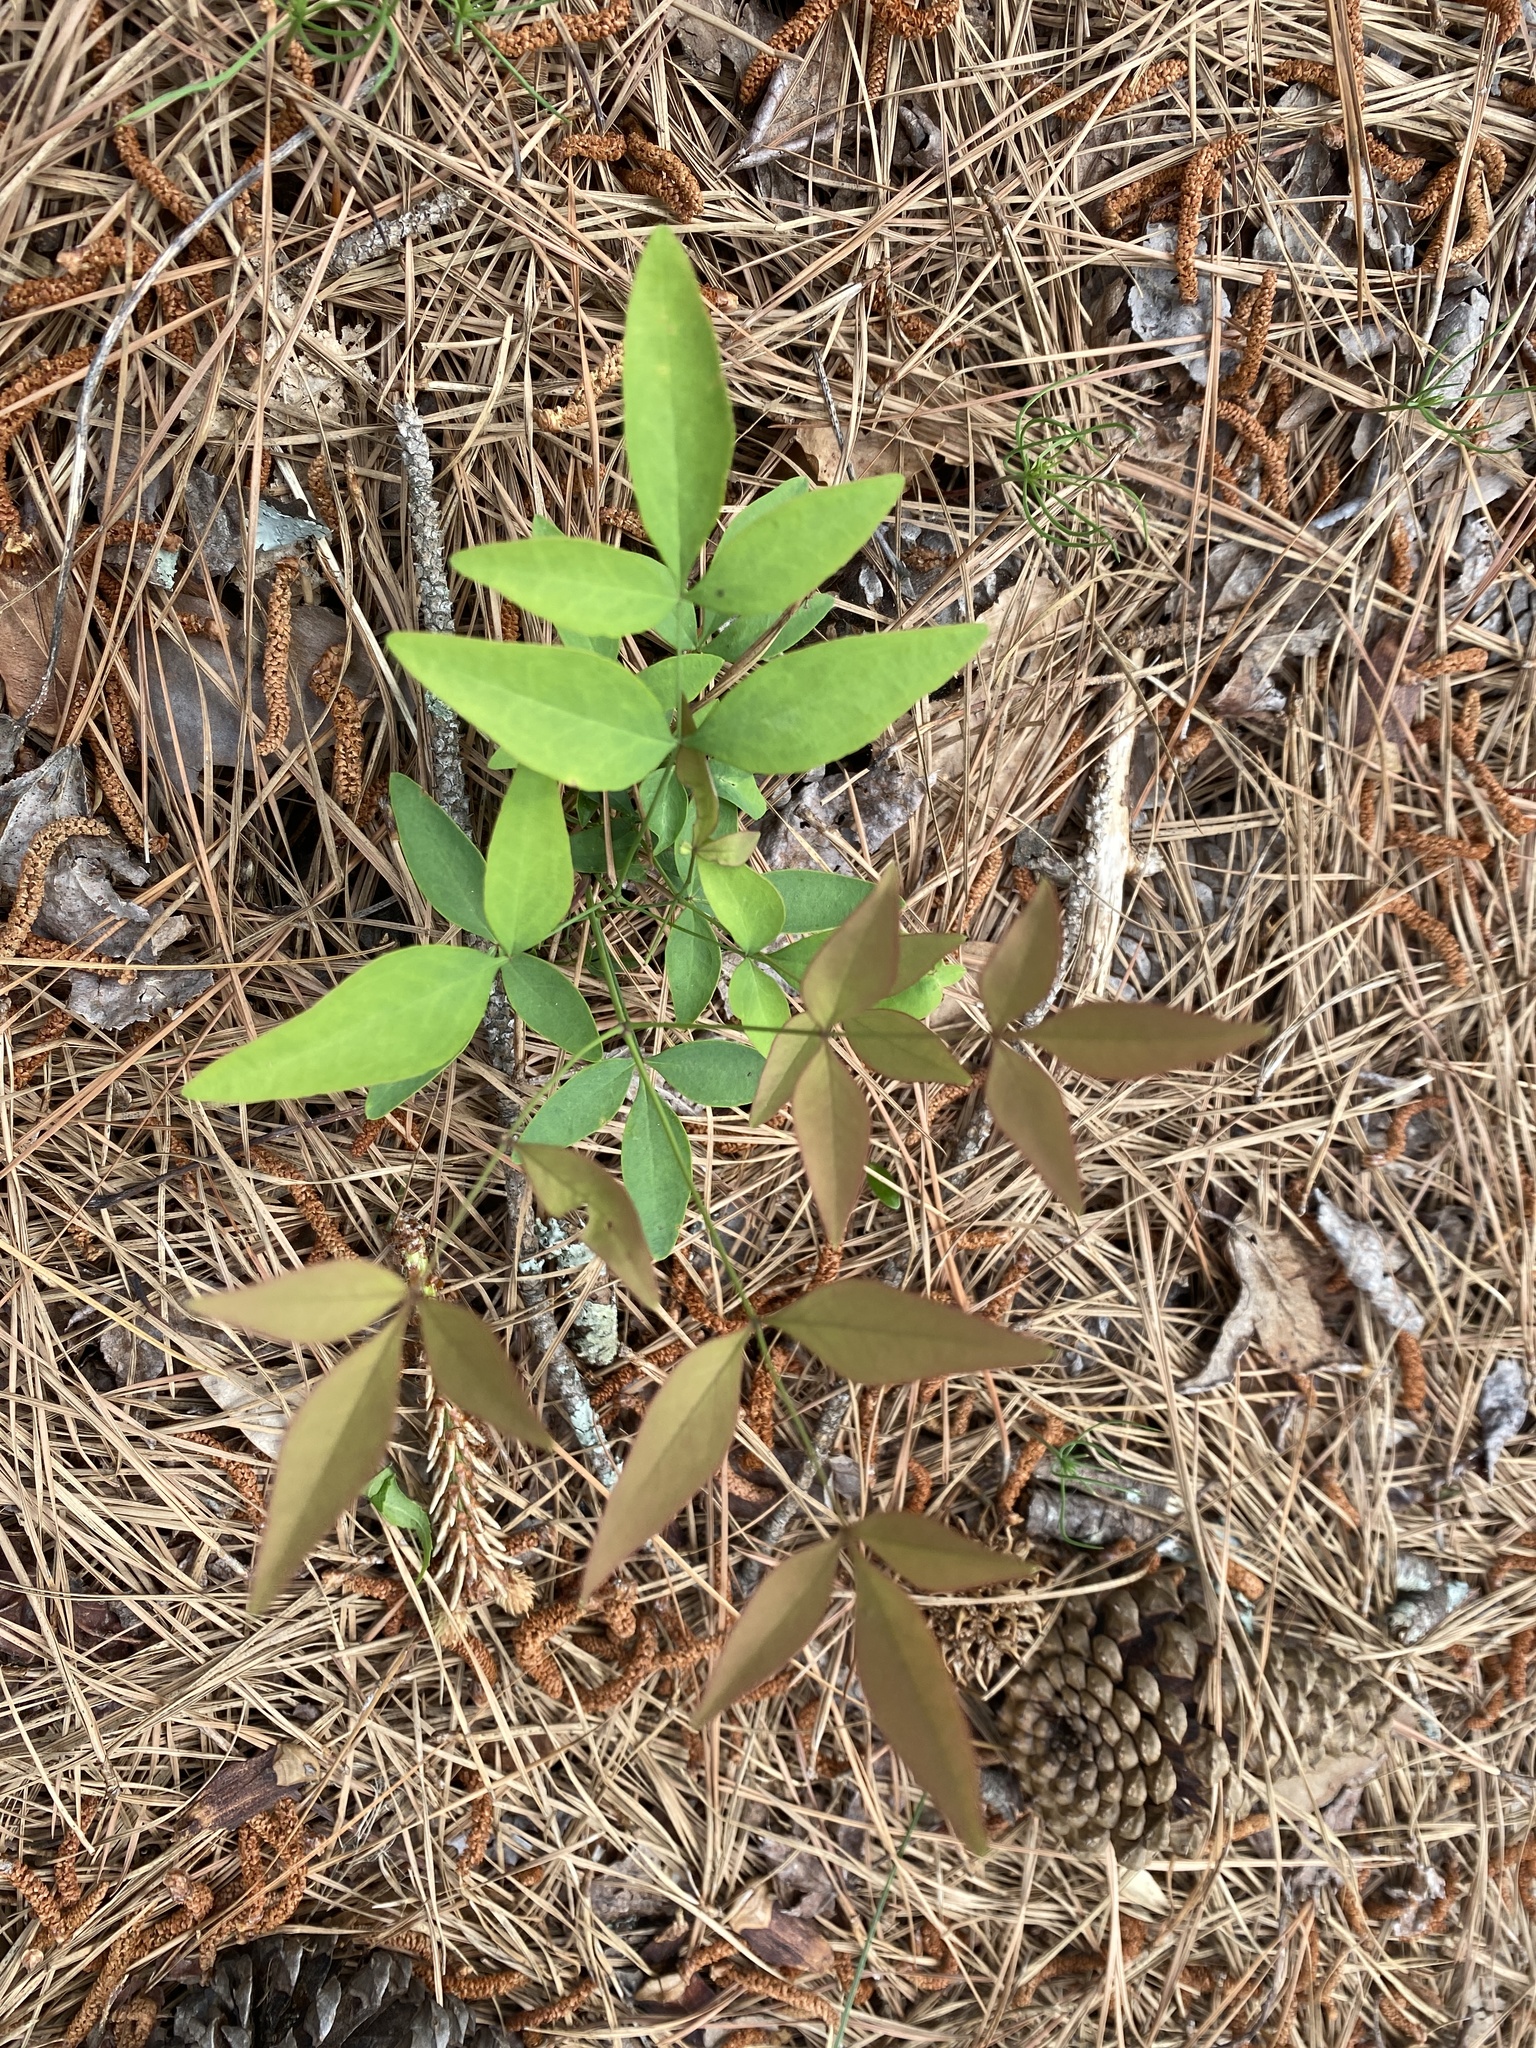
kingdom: Plantae
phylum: Tracheophyta
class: Magnoliopsida
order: Ranunculales
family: Berberidaceae
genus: Nandina
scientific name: Nandina domestica
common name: Sacred bamboo
